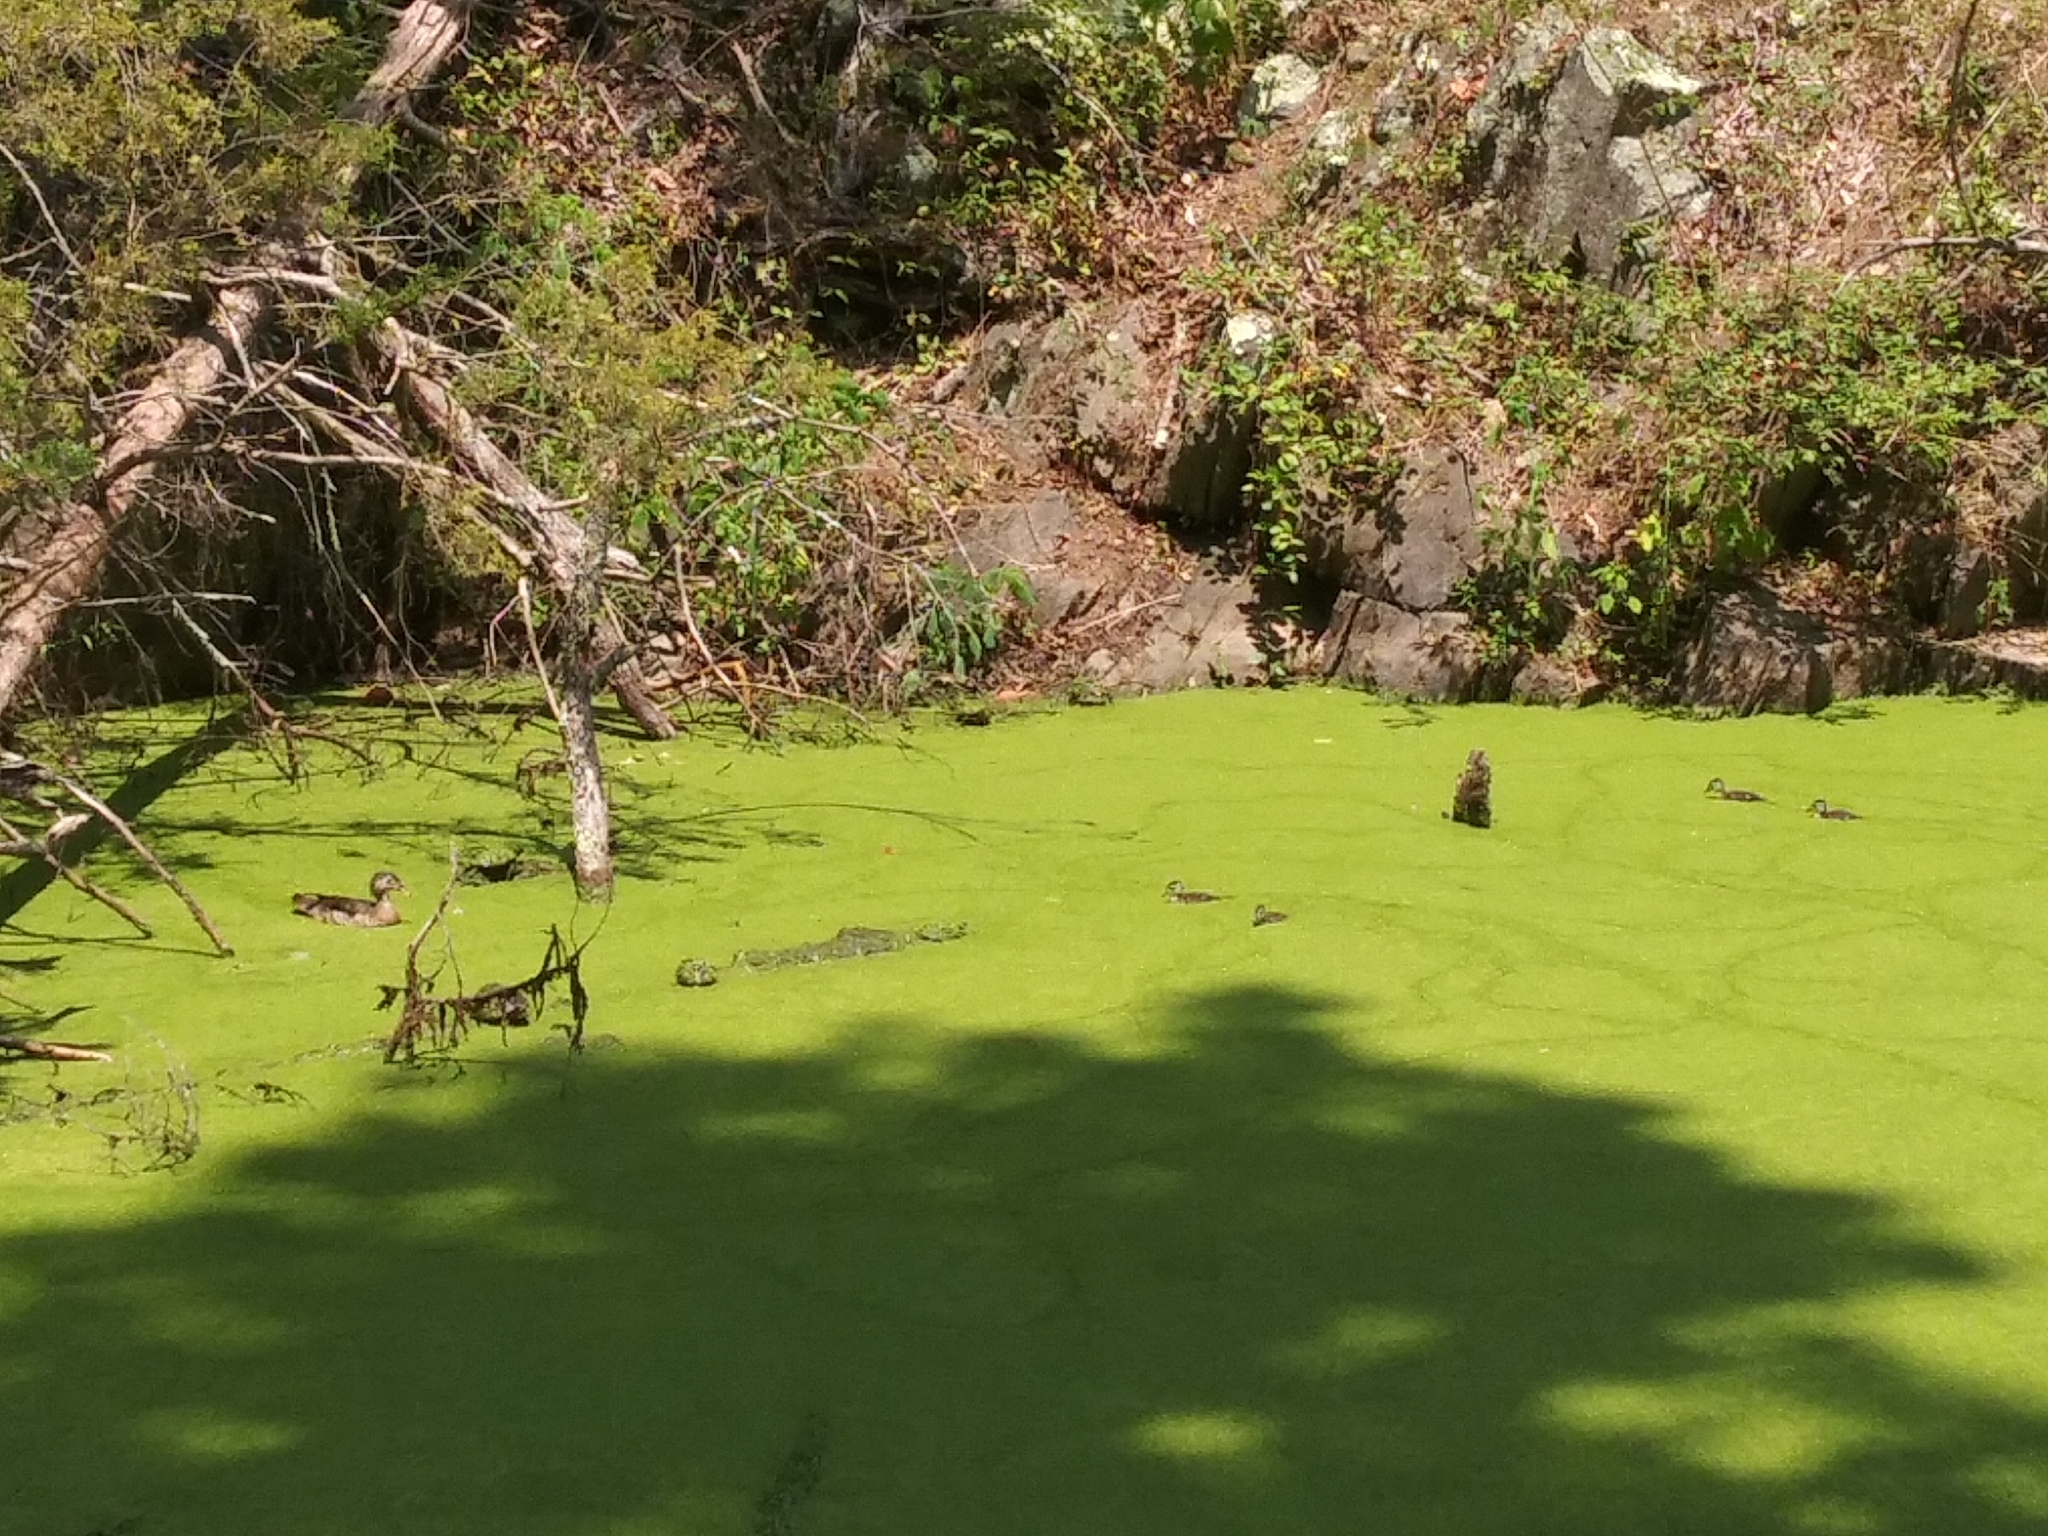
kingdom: Animalia
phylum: Chordata
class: Aves
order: Anseriformes
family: Anatidae
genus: Aix
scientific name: Aix sponsa
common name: Wood duck
